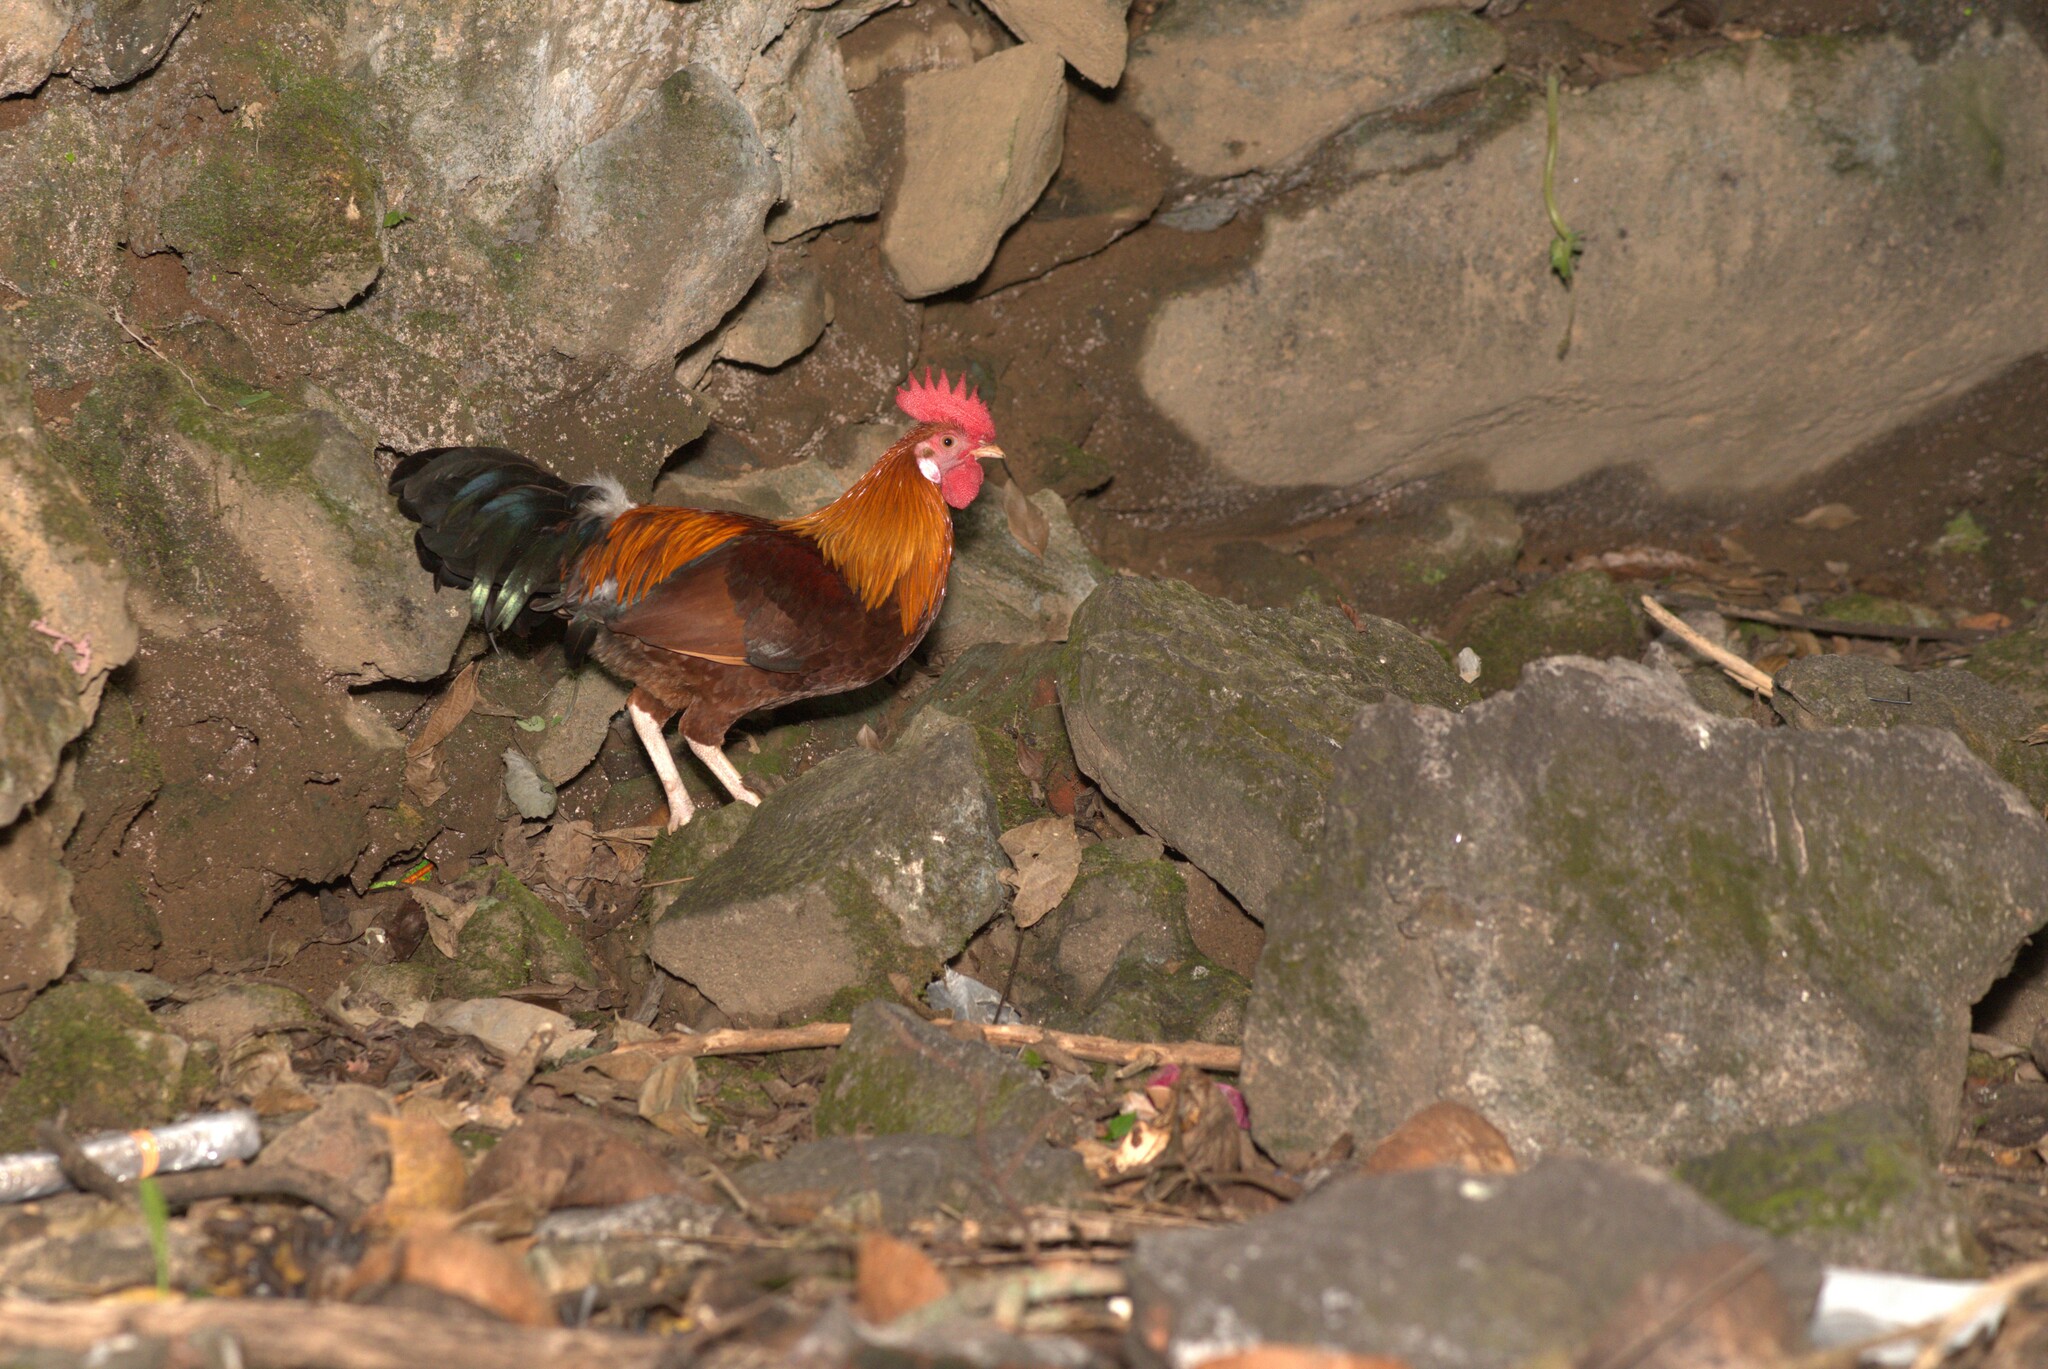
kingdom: Animalia
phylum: Chordata
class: Aves
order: Galliformes
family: Phasianidae
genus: Gallus
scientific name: Gallus gallus
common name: Red junglefowl
